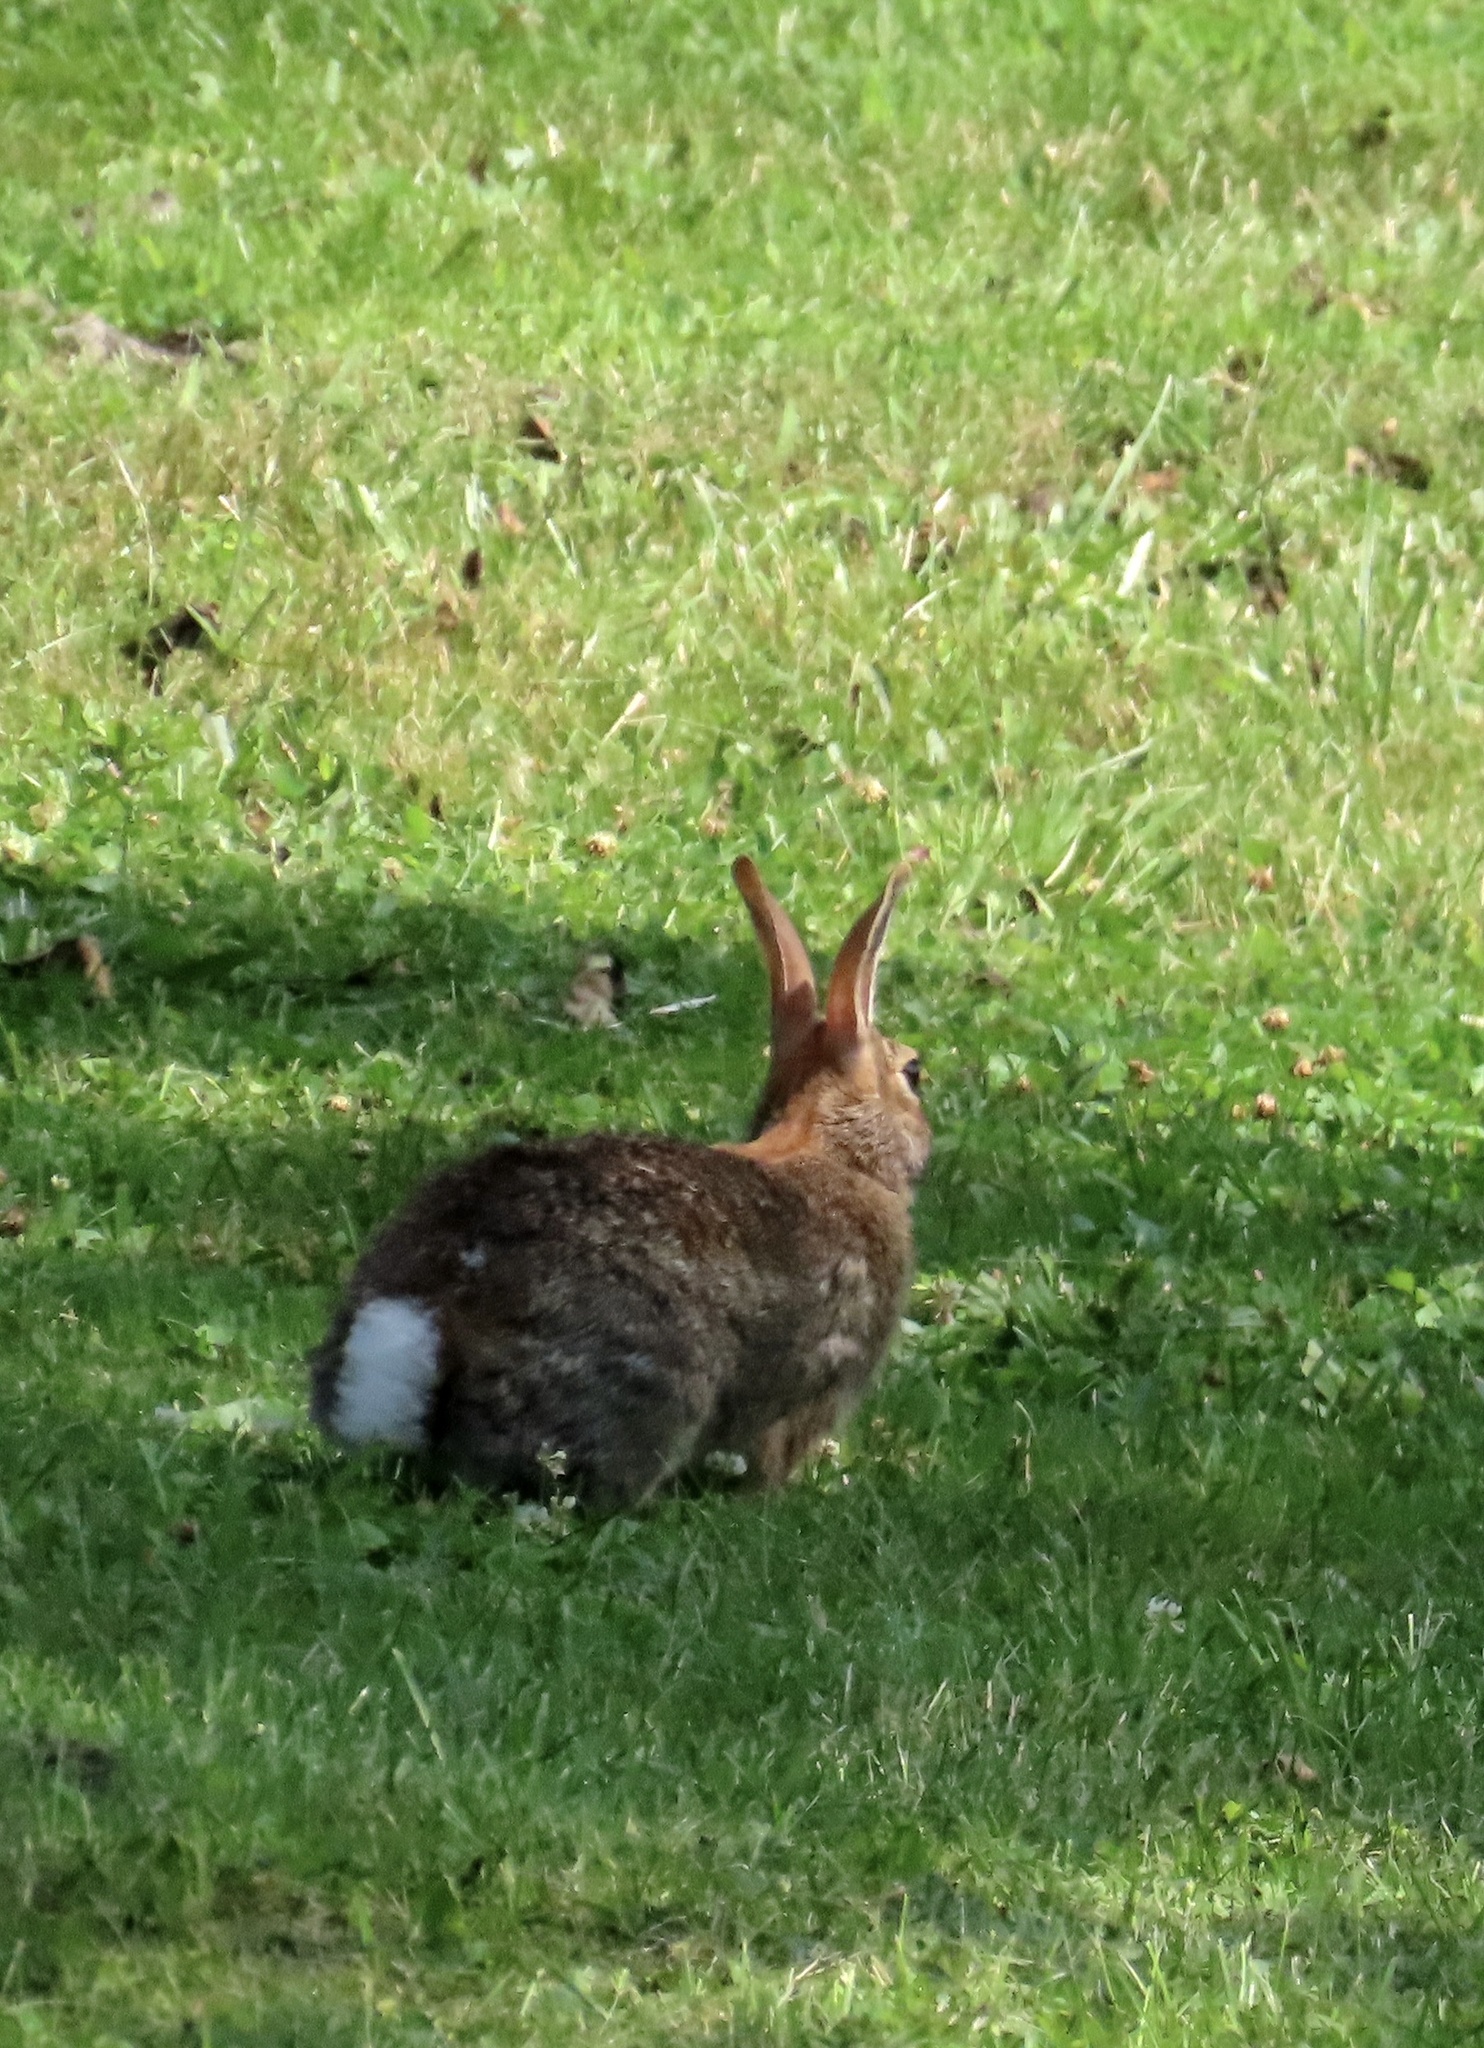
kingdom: Animalia
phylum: Chordata
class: Mammalia
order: Lagomorpha
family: Leporidae
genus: Sylvilagus
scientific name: Sylvilagus floridanus
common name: Eastern cottontail
